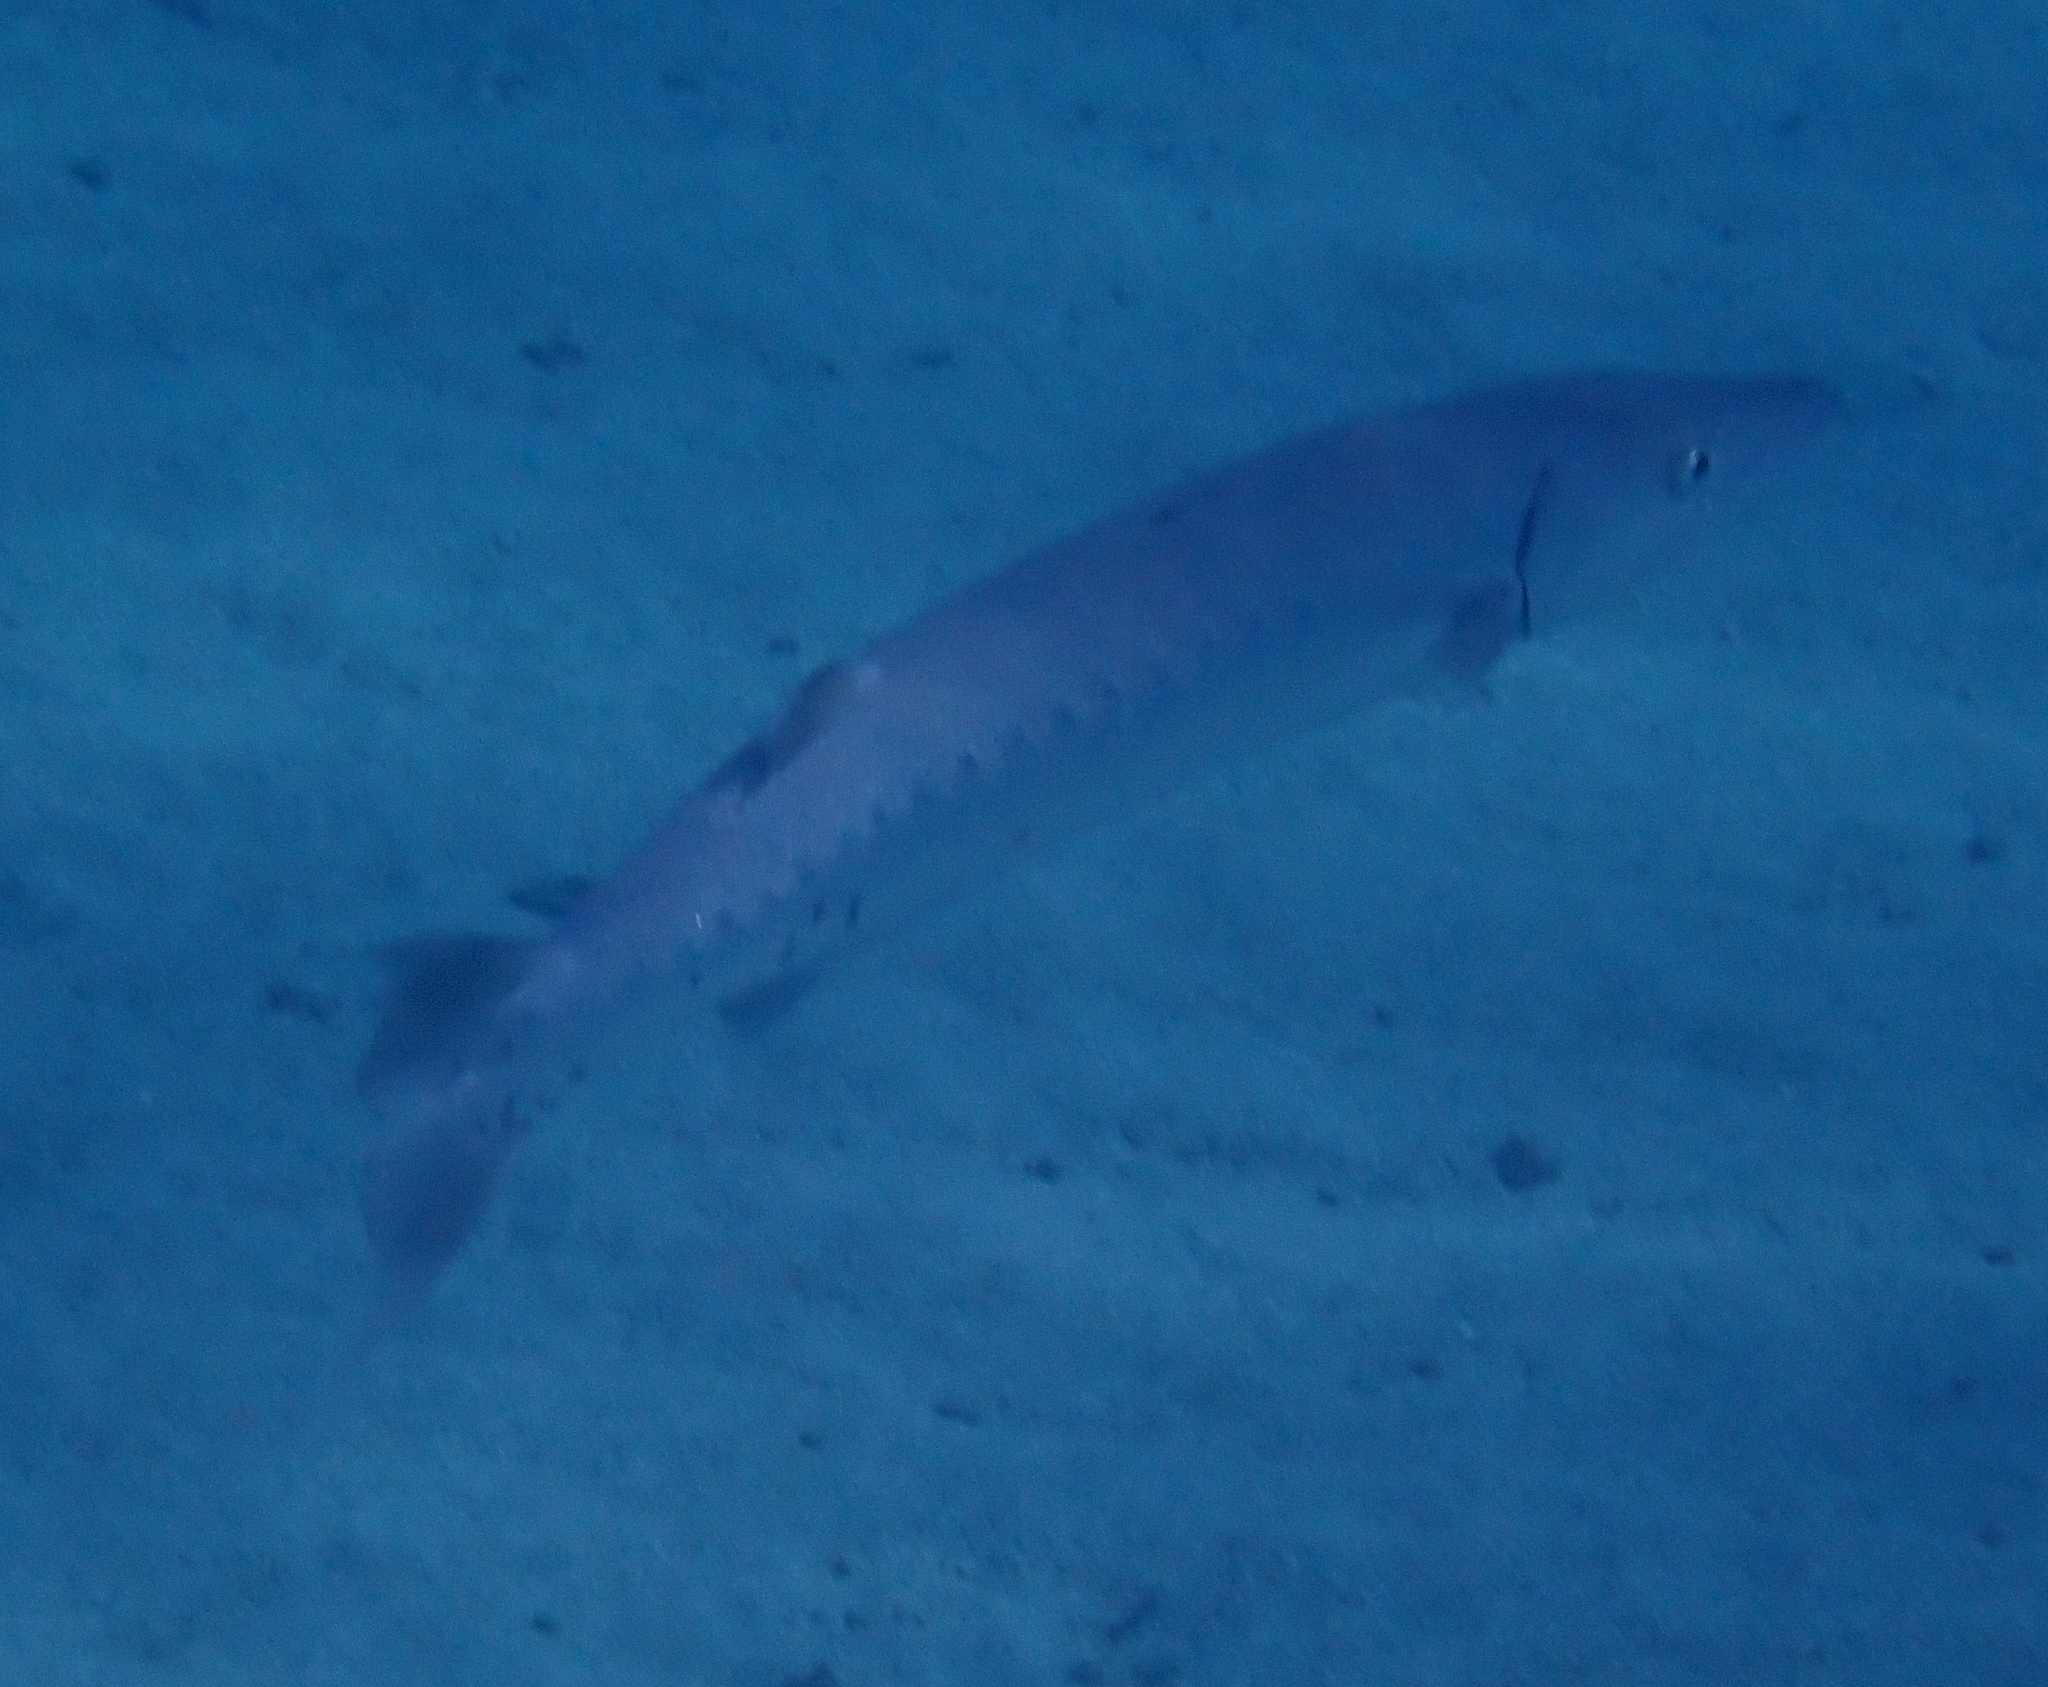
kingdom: Animalia
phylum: Chordata
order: Perciformes
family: Sphyraenidae
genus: Sphyraena
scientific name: Sphyraena barracuda
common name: Great barracuda
